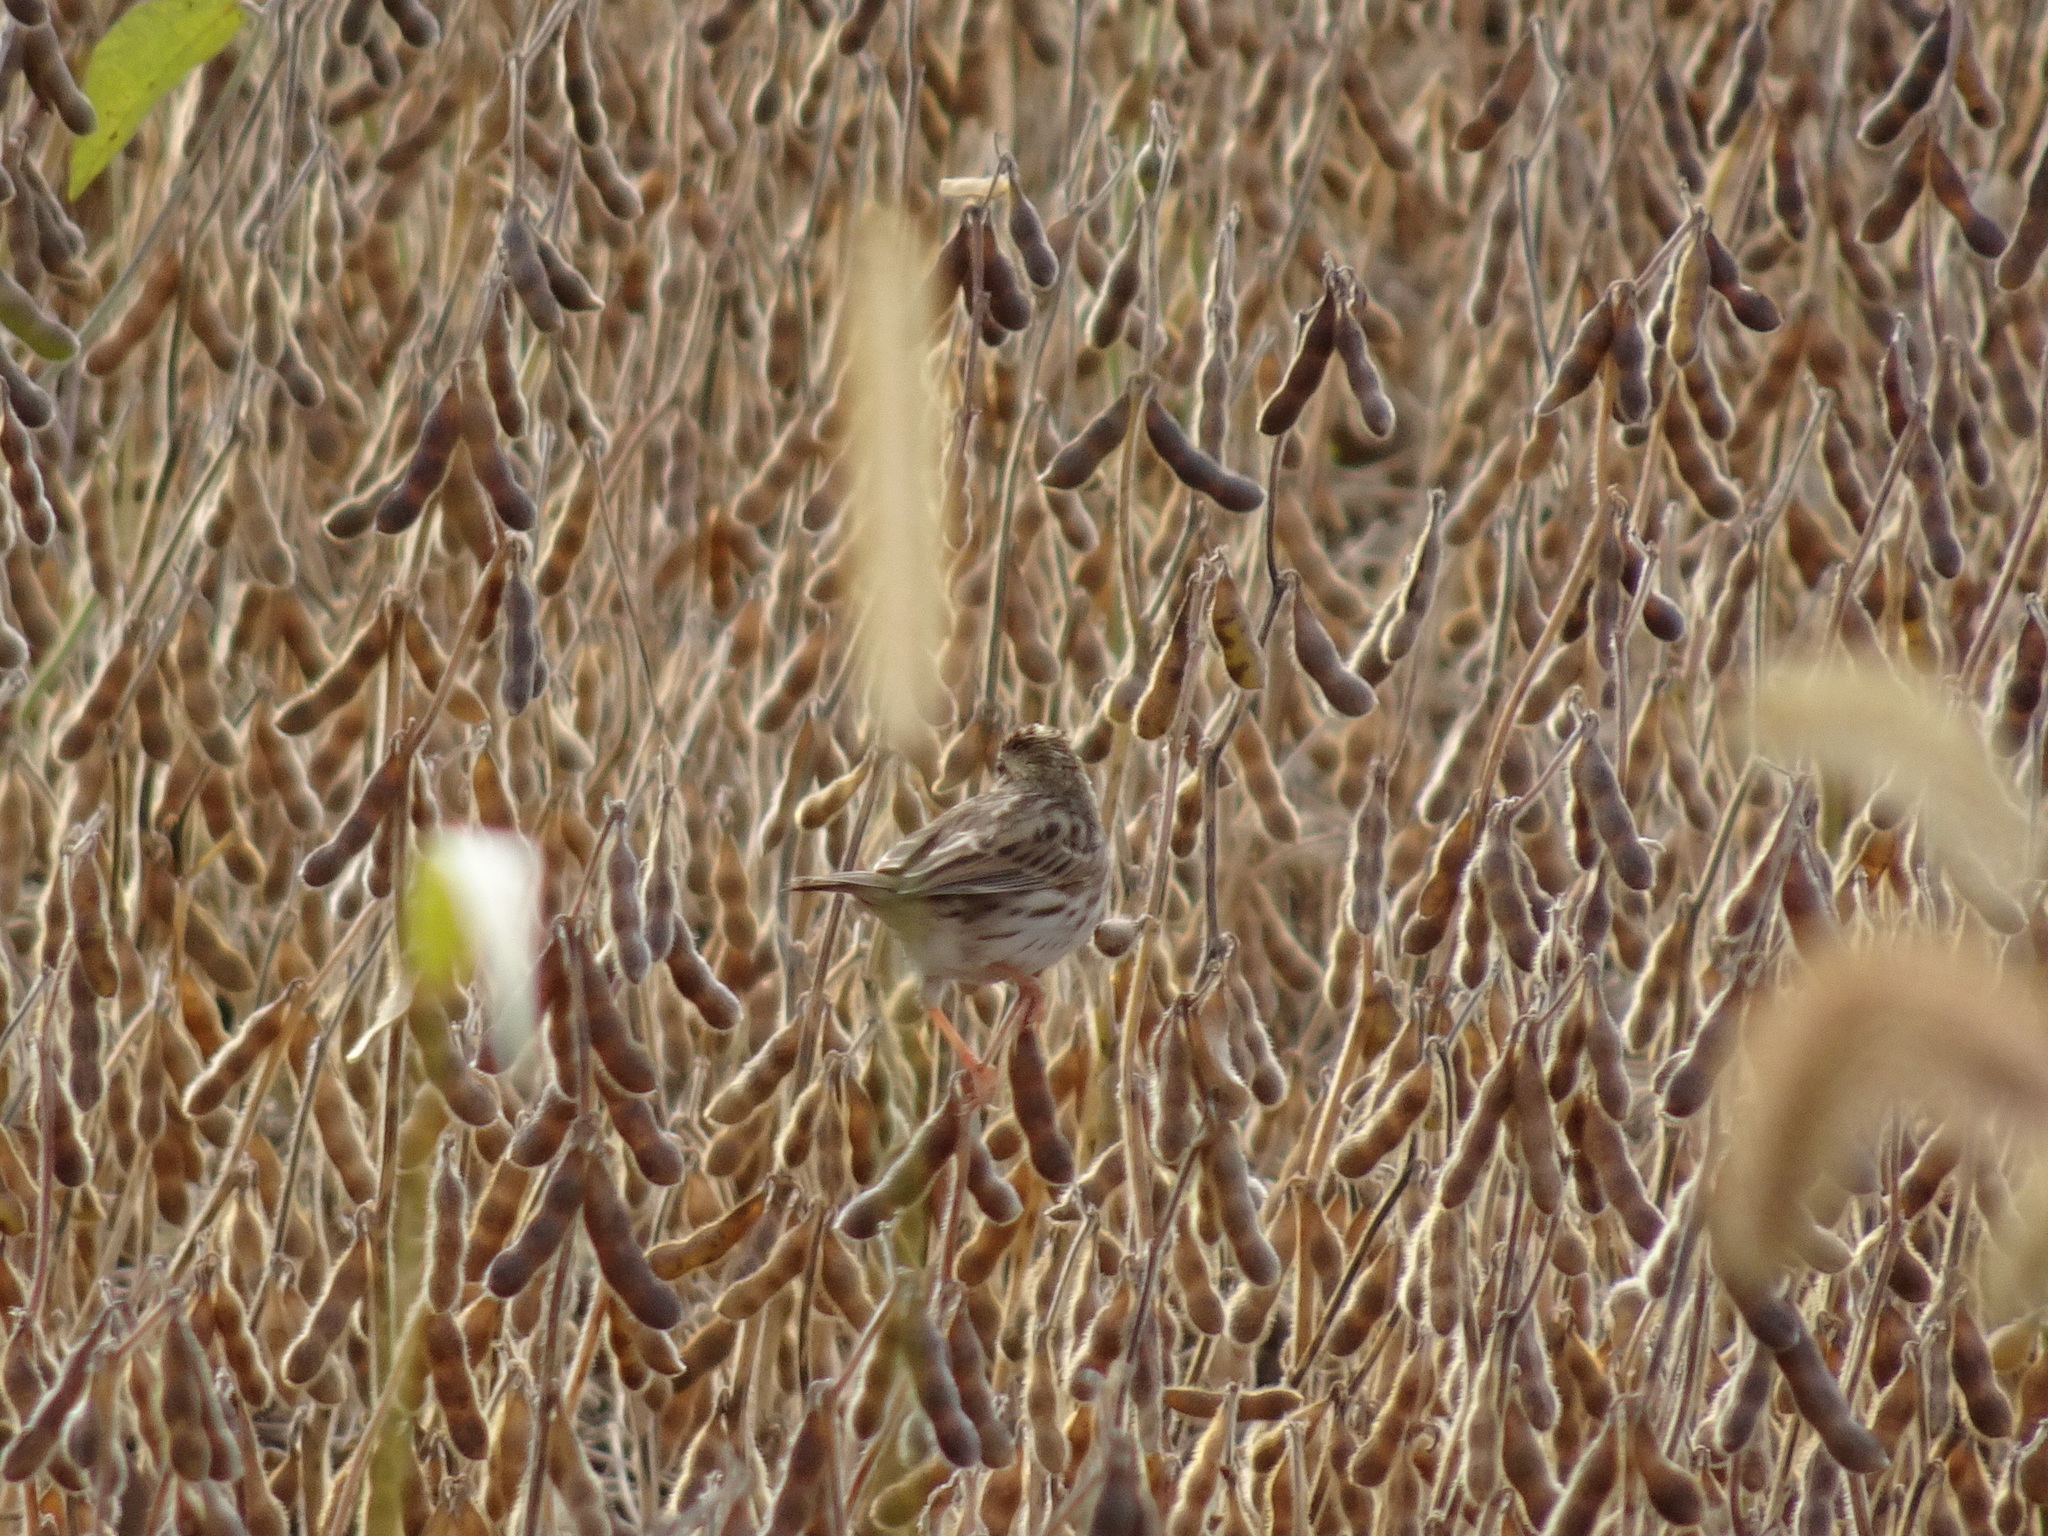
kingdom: Animalia
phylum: Chordata
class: Aves
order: Passeriformes
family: Passerellidae
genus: Passerculus
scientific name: Passerculus sandwichensis
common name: Savannah sparrow
